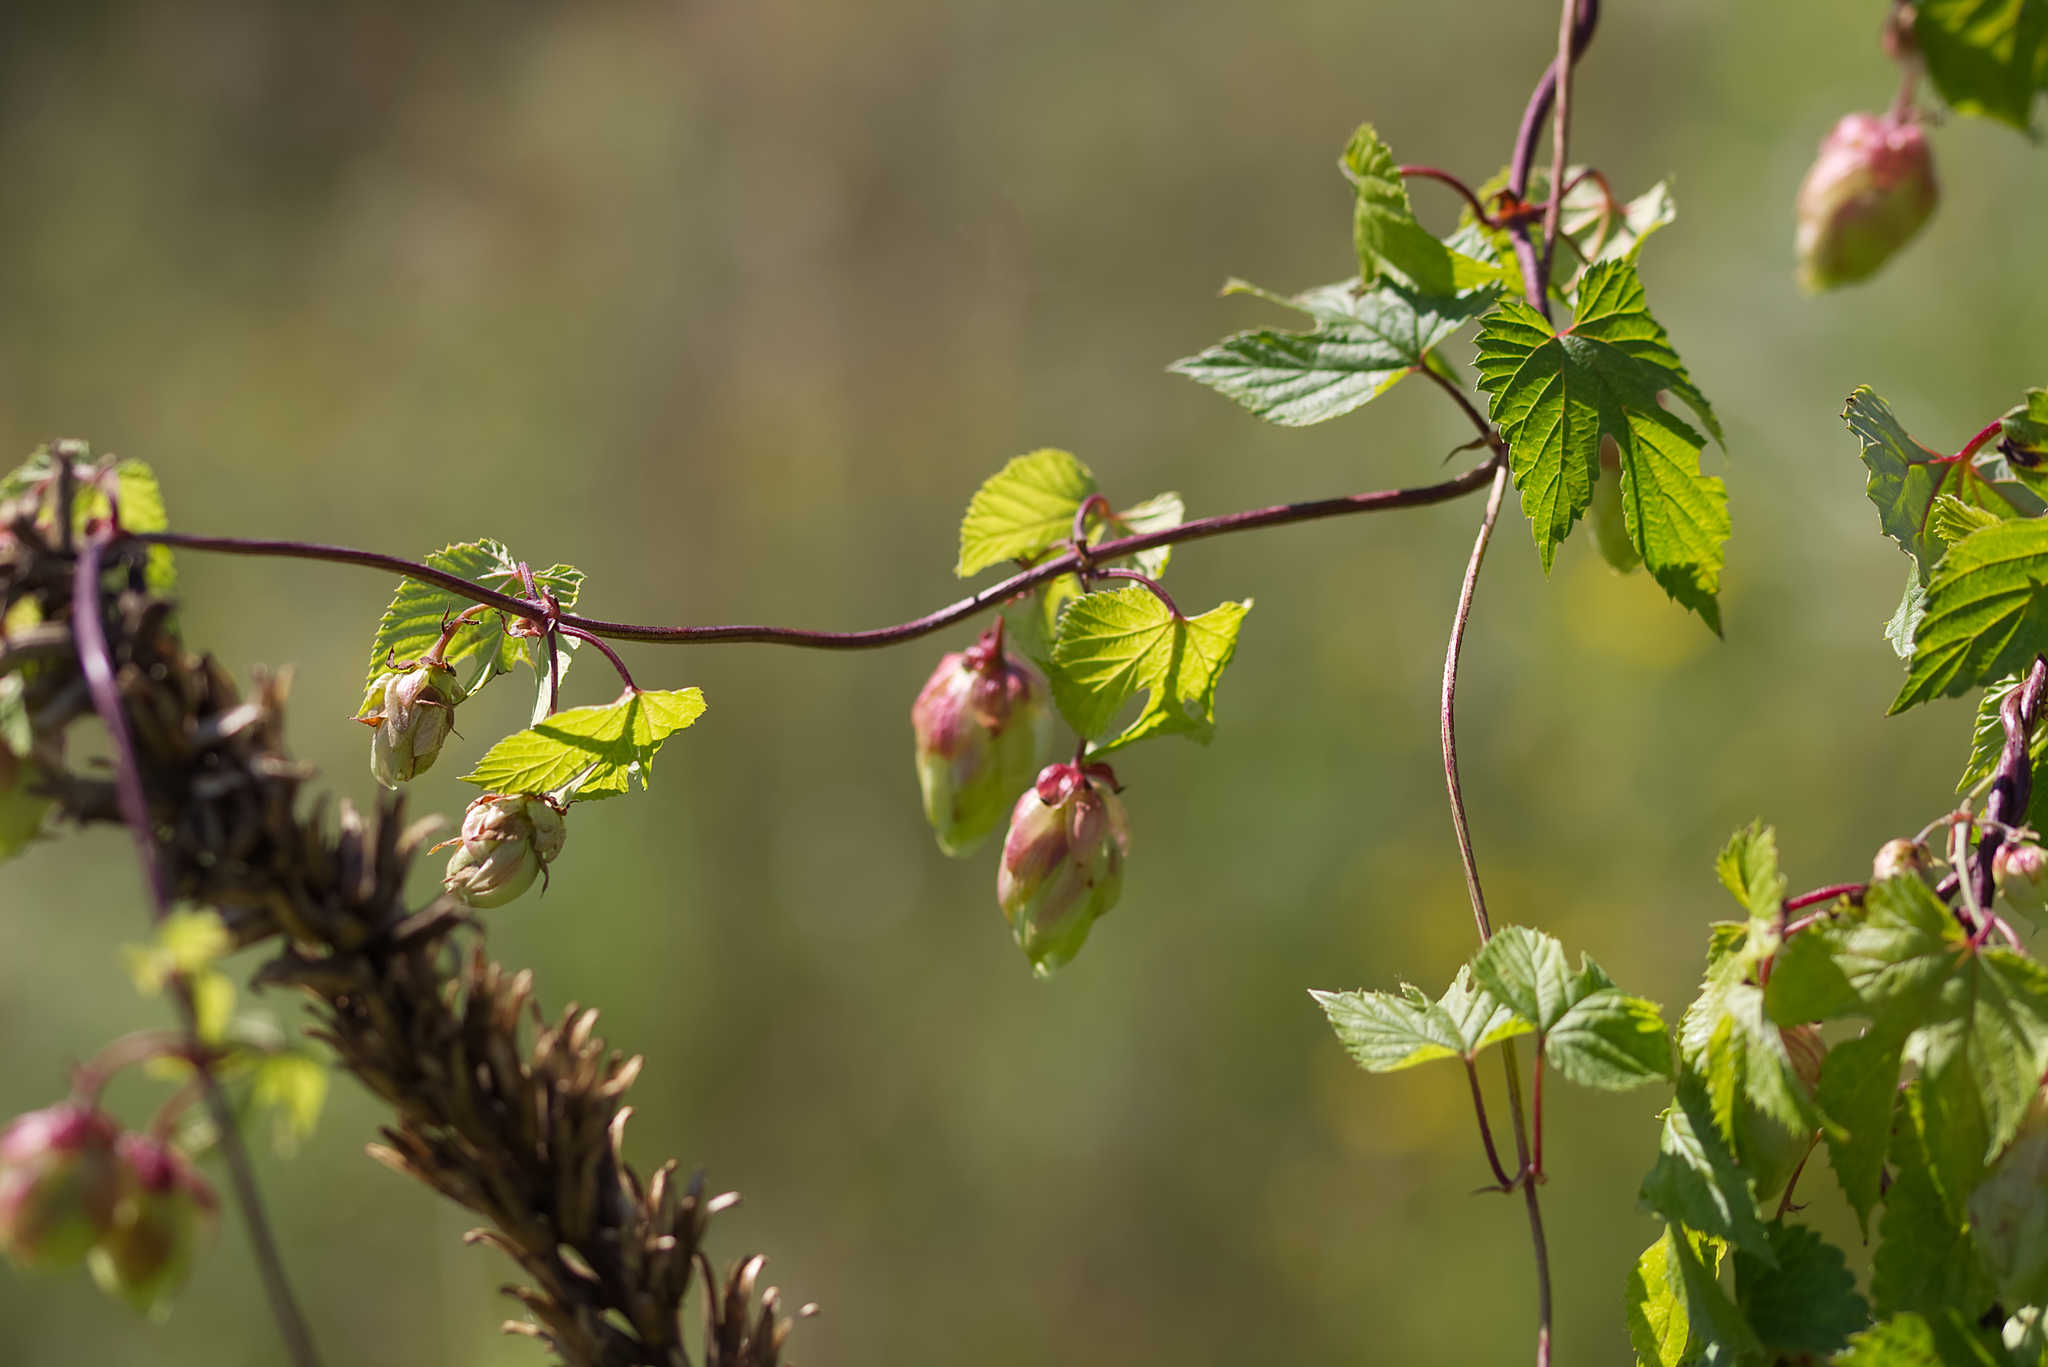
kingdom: Plantae
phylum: Tracheophyta
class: Magnoliopsida
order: Rosales
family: Cannabaceae
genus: Humulus
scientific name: Humulus lupulus
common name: Hop
